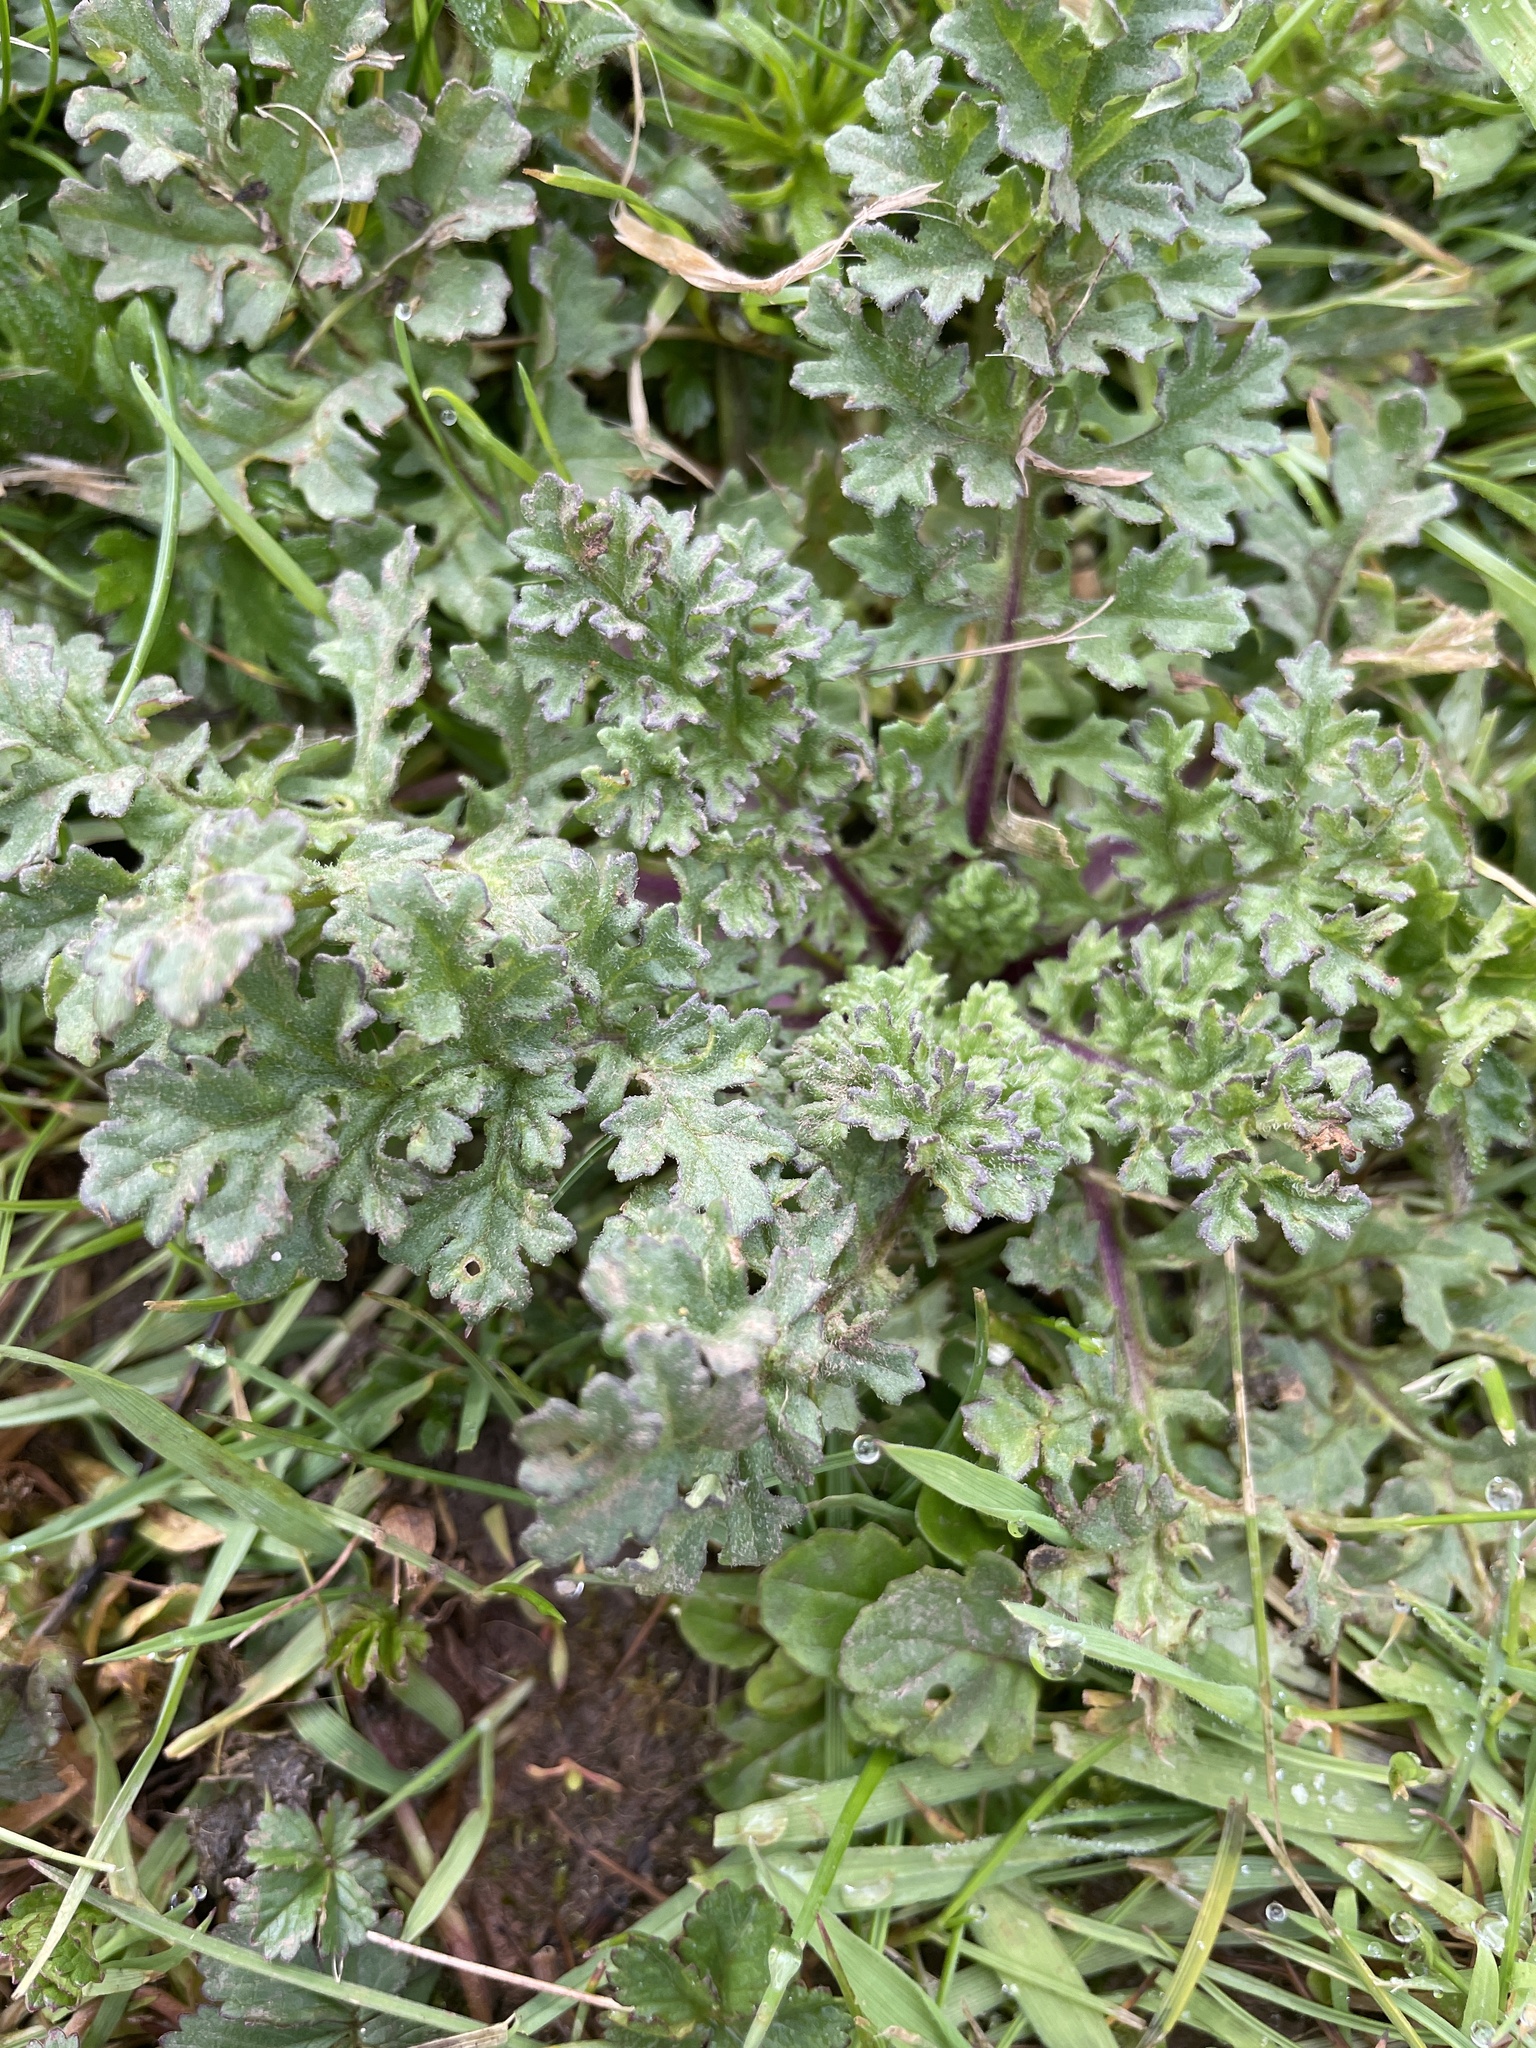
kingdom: Plantae
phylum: Tracheophyta
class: Magnoliopsida
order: Asterales
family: Asteraceae
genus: Jacobaea
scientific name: Jacobaea vulgaris
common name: Stinking willie
